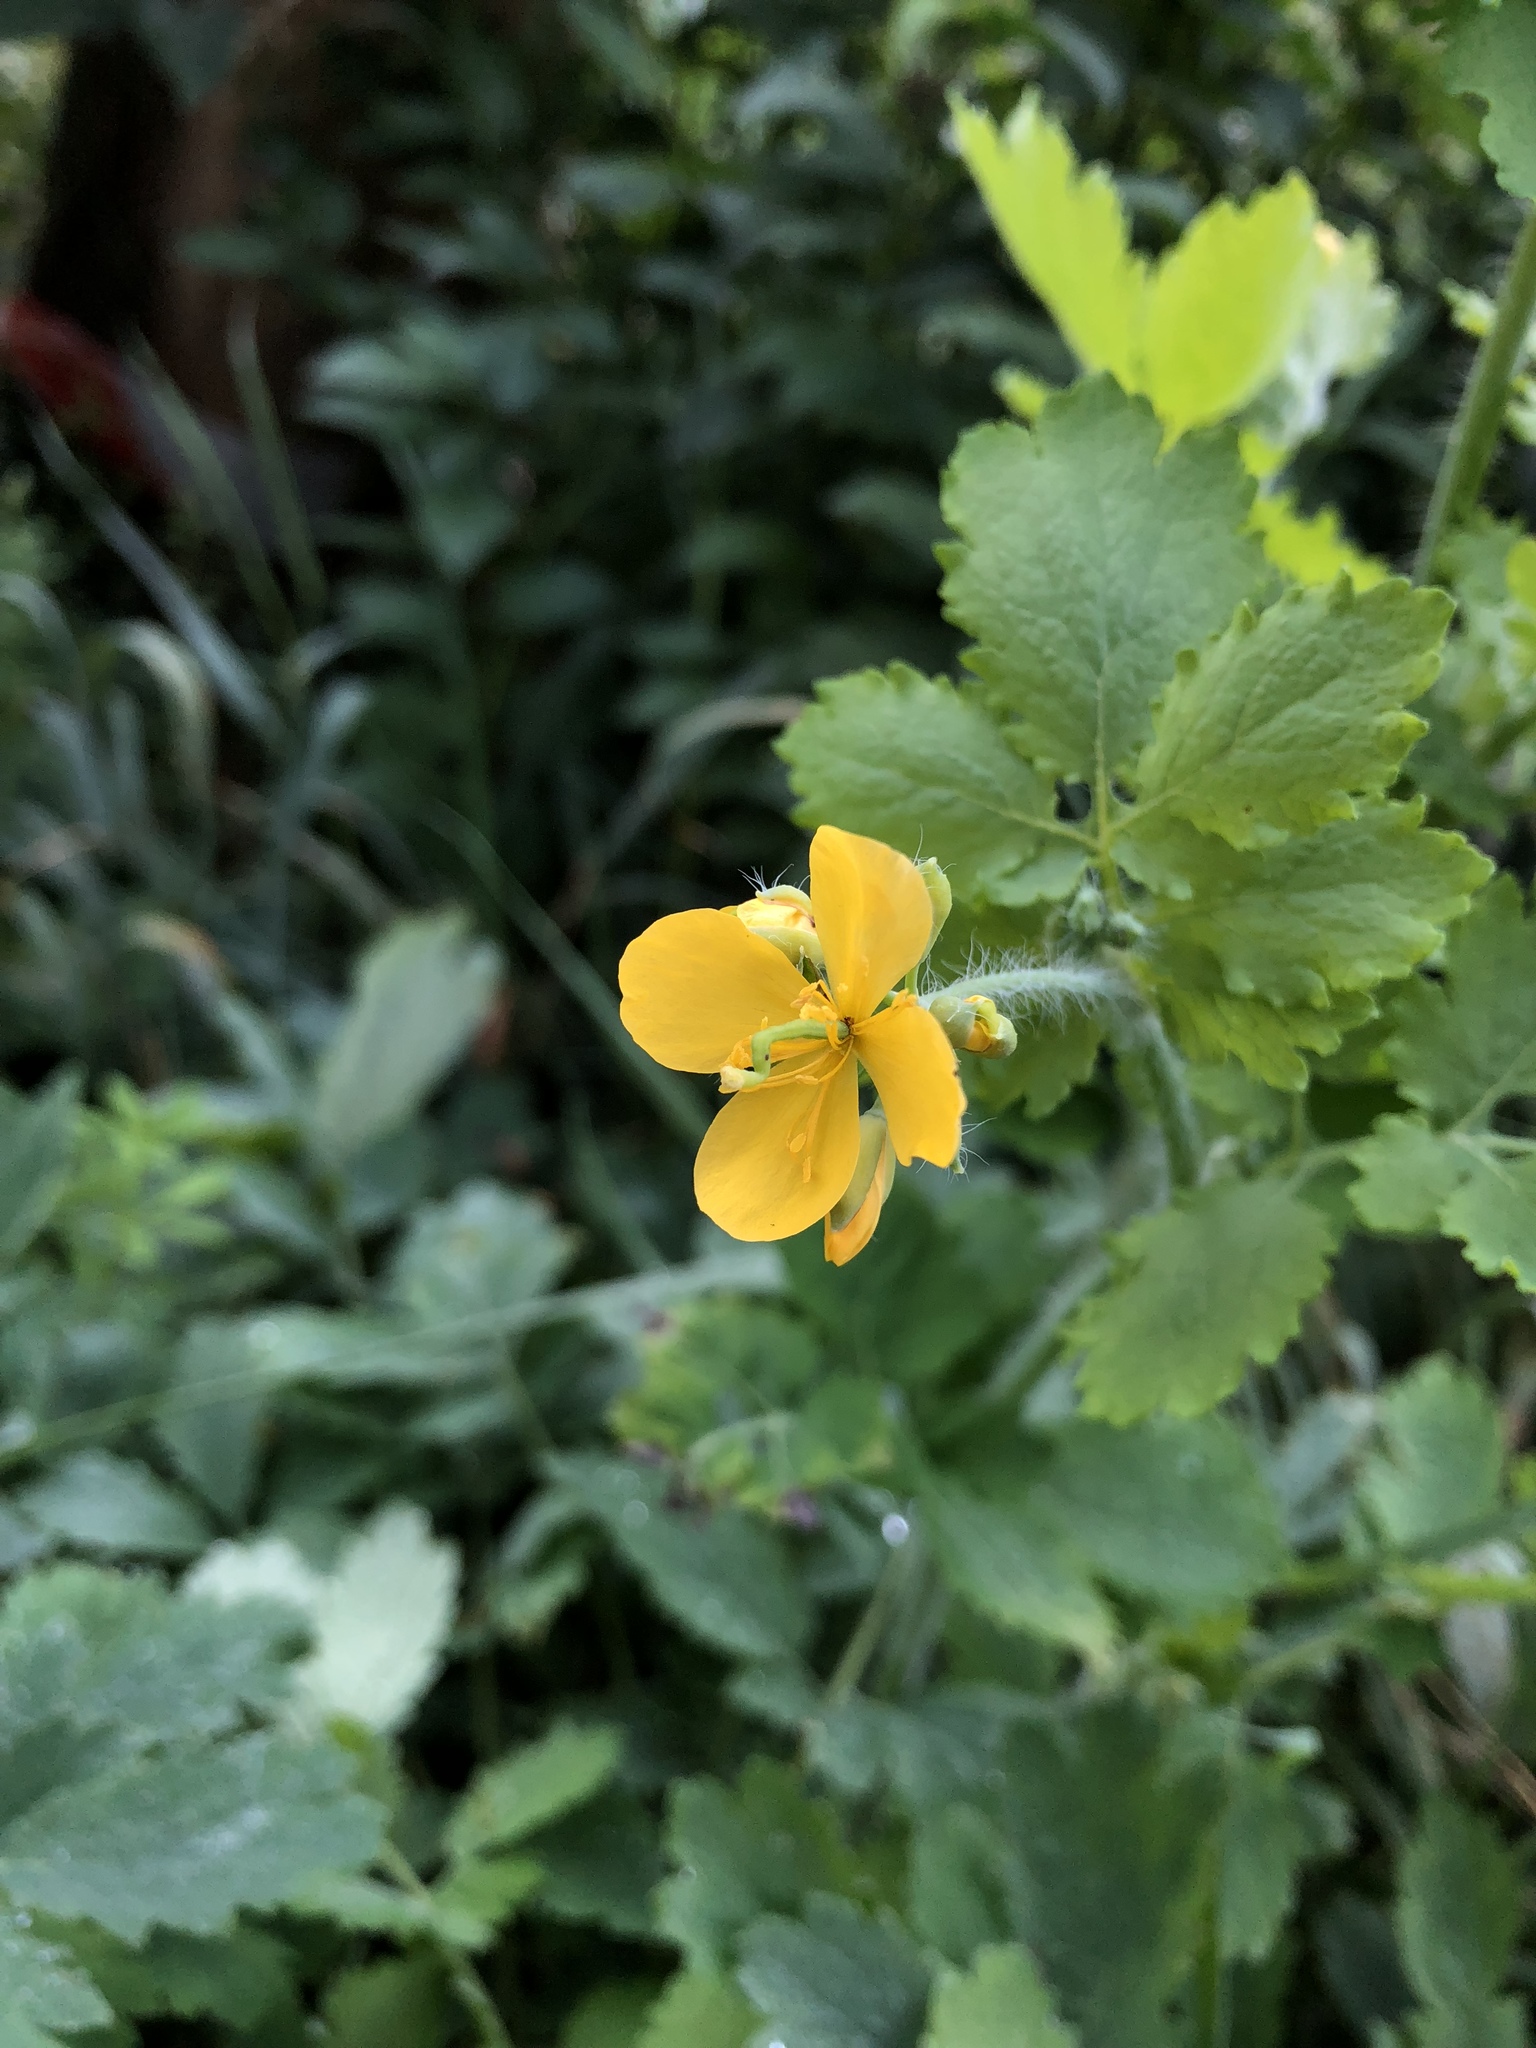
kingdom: Plantae
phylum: Tracheophyta
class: Magnoliopsida
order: Ranunculales
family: Papaveraceae
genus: Chelidonium
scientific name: Chelidonium majus
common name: Greater celandine
